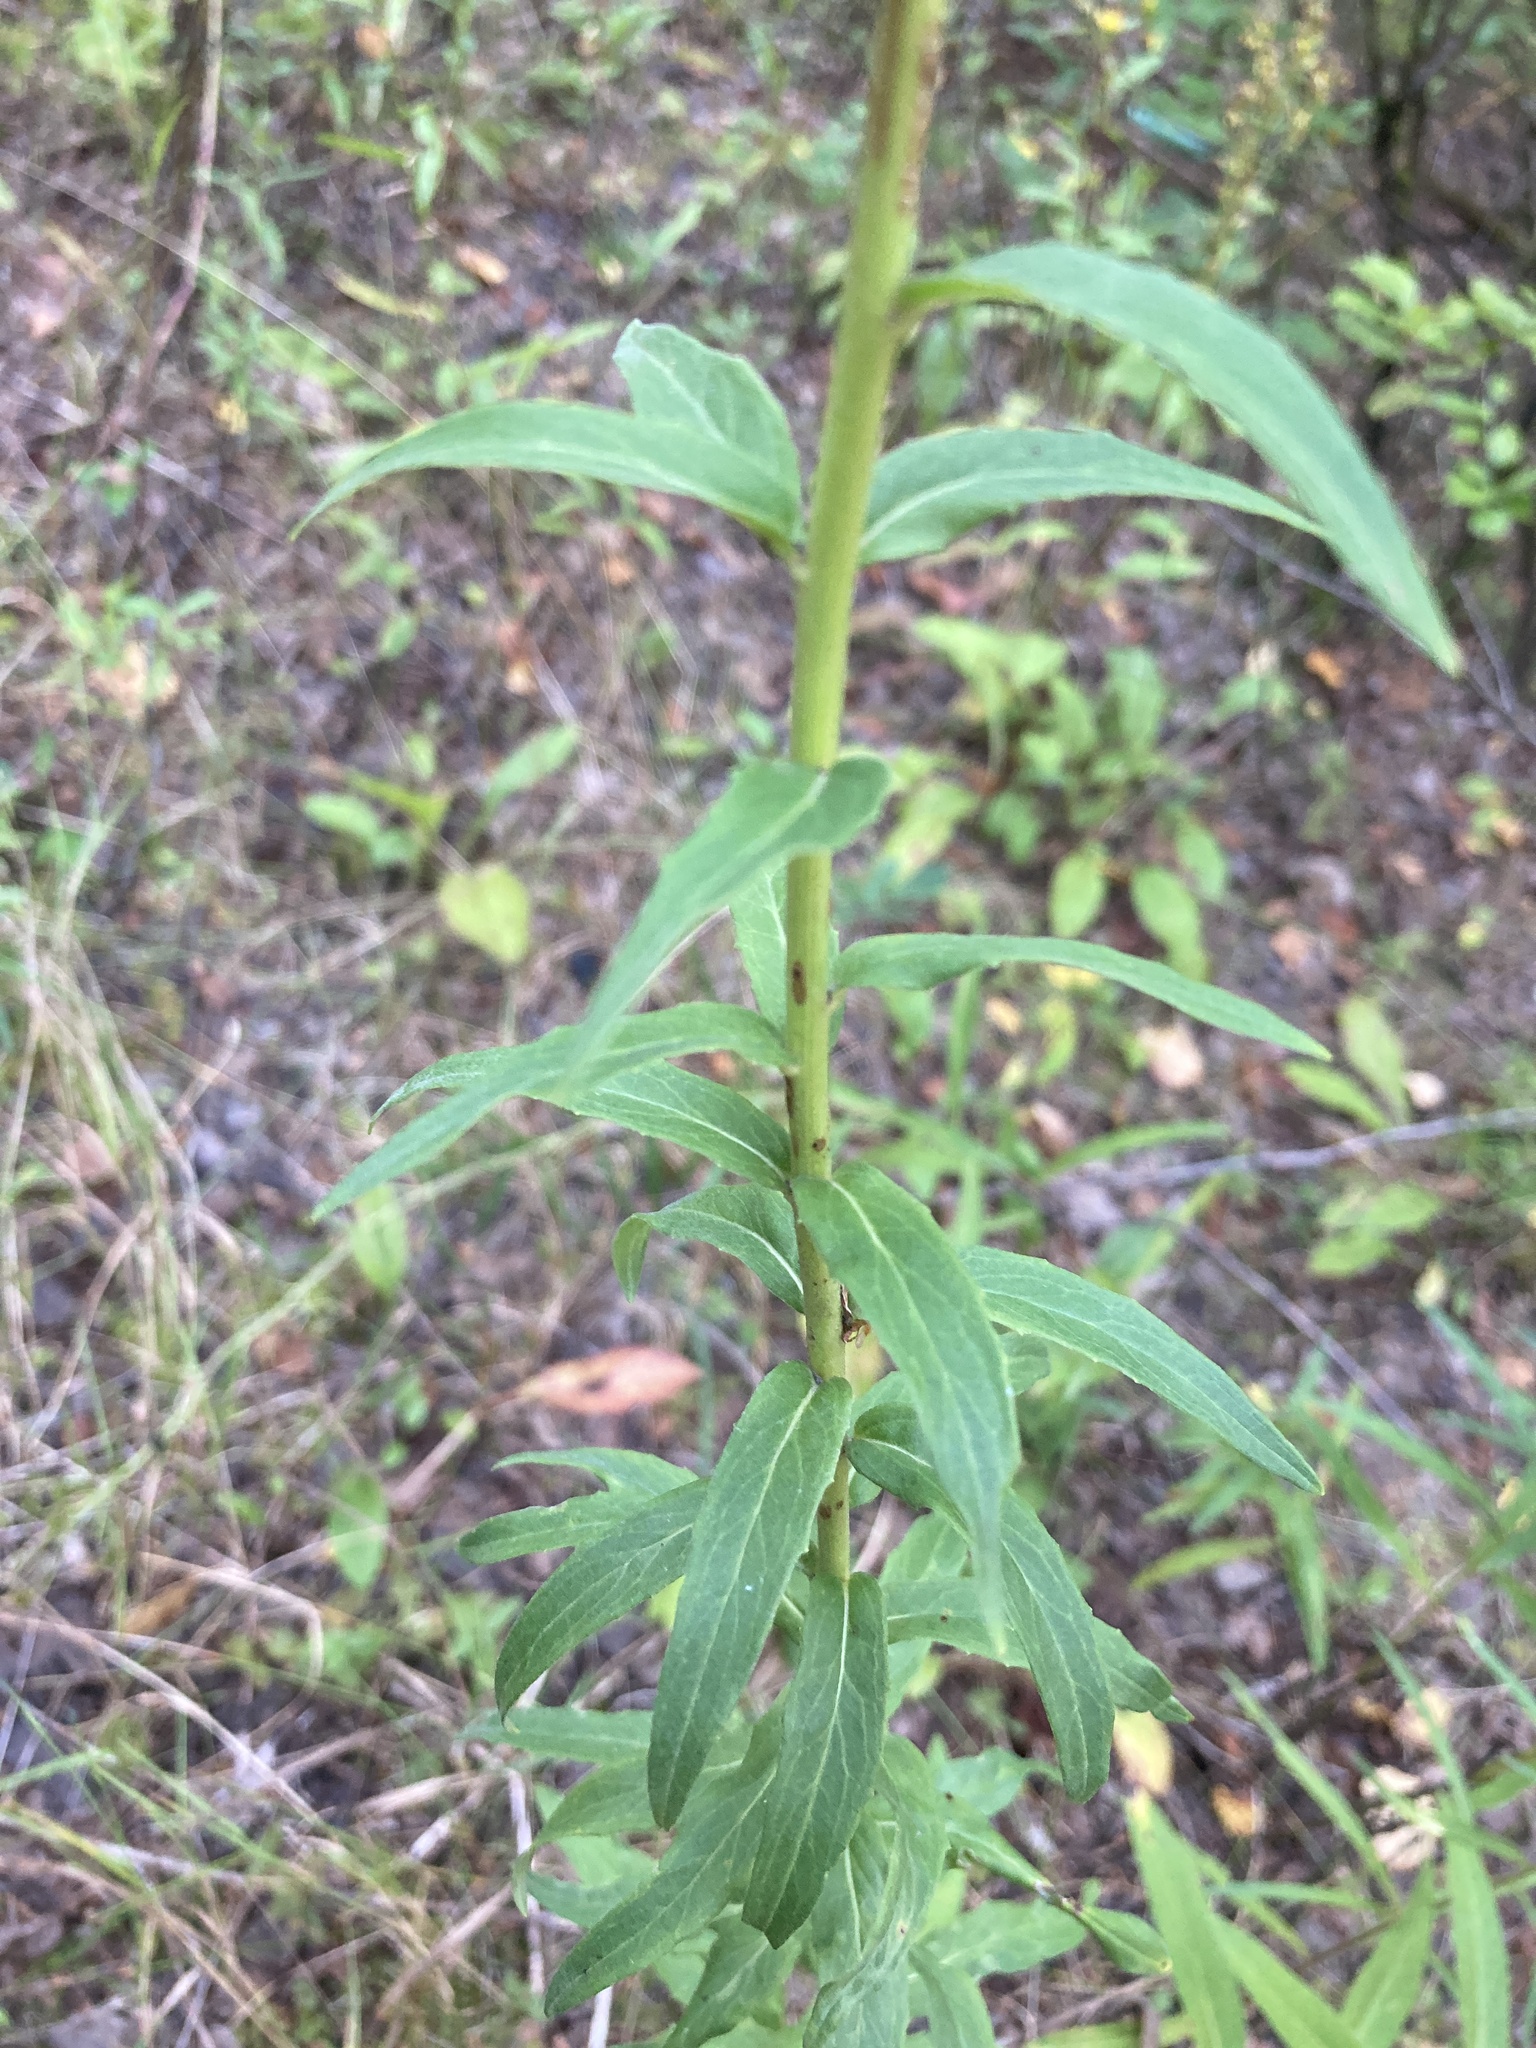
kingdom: Plantae
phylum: Tracheophyta
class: Magnoliopsida
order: Asterales
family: Asteraceae
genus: Hieracium
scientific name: Hieracium umbellatum
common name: Northern hawkweed
